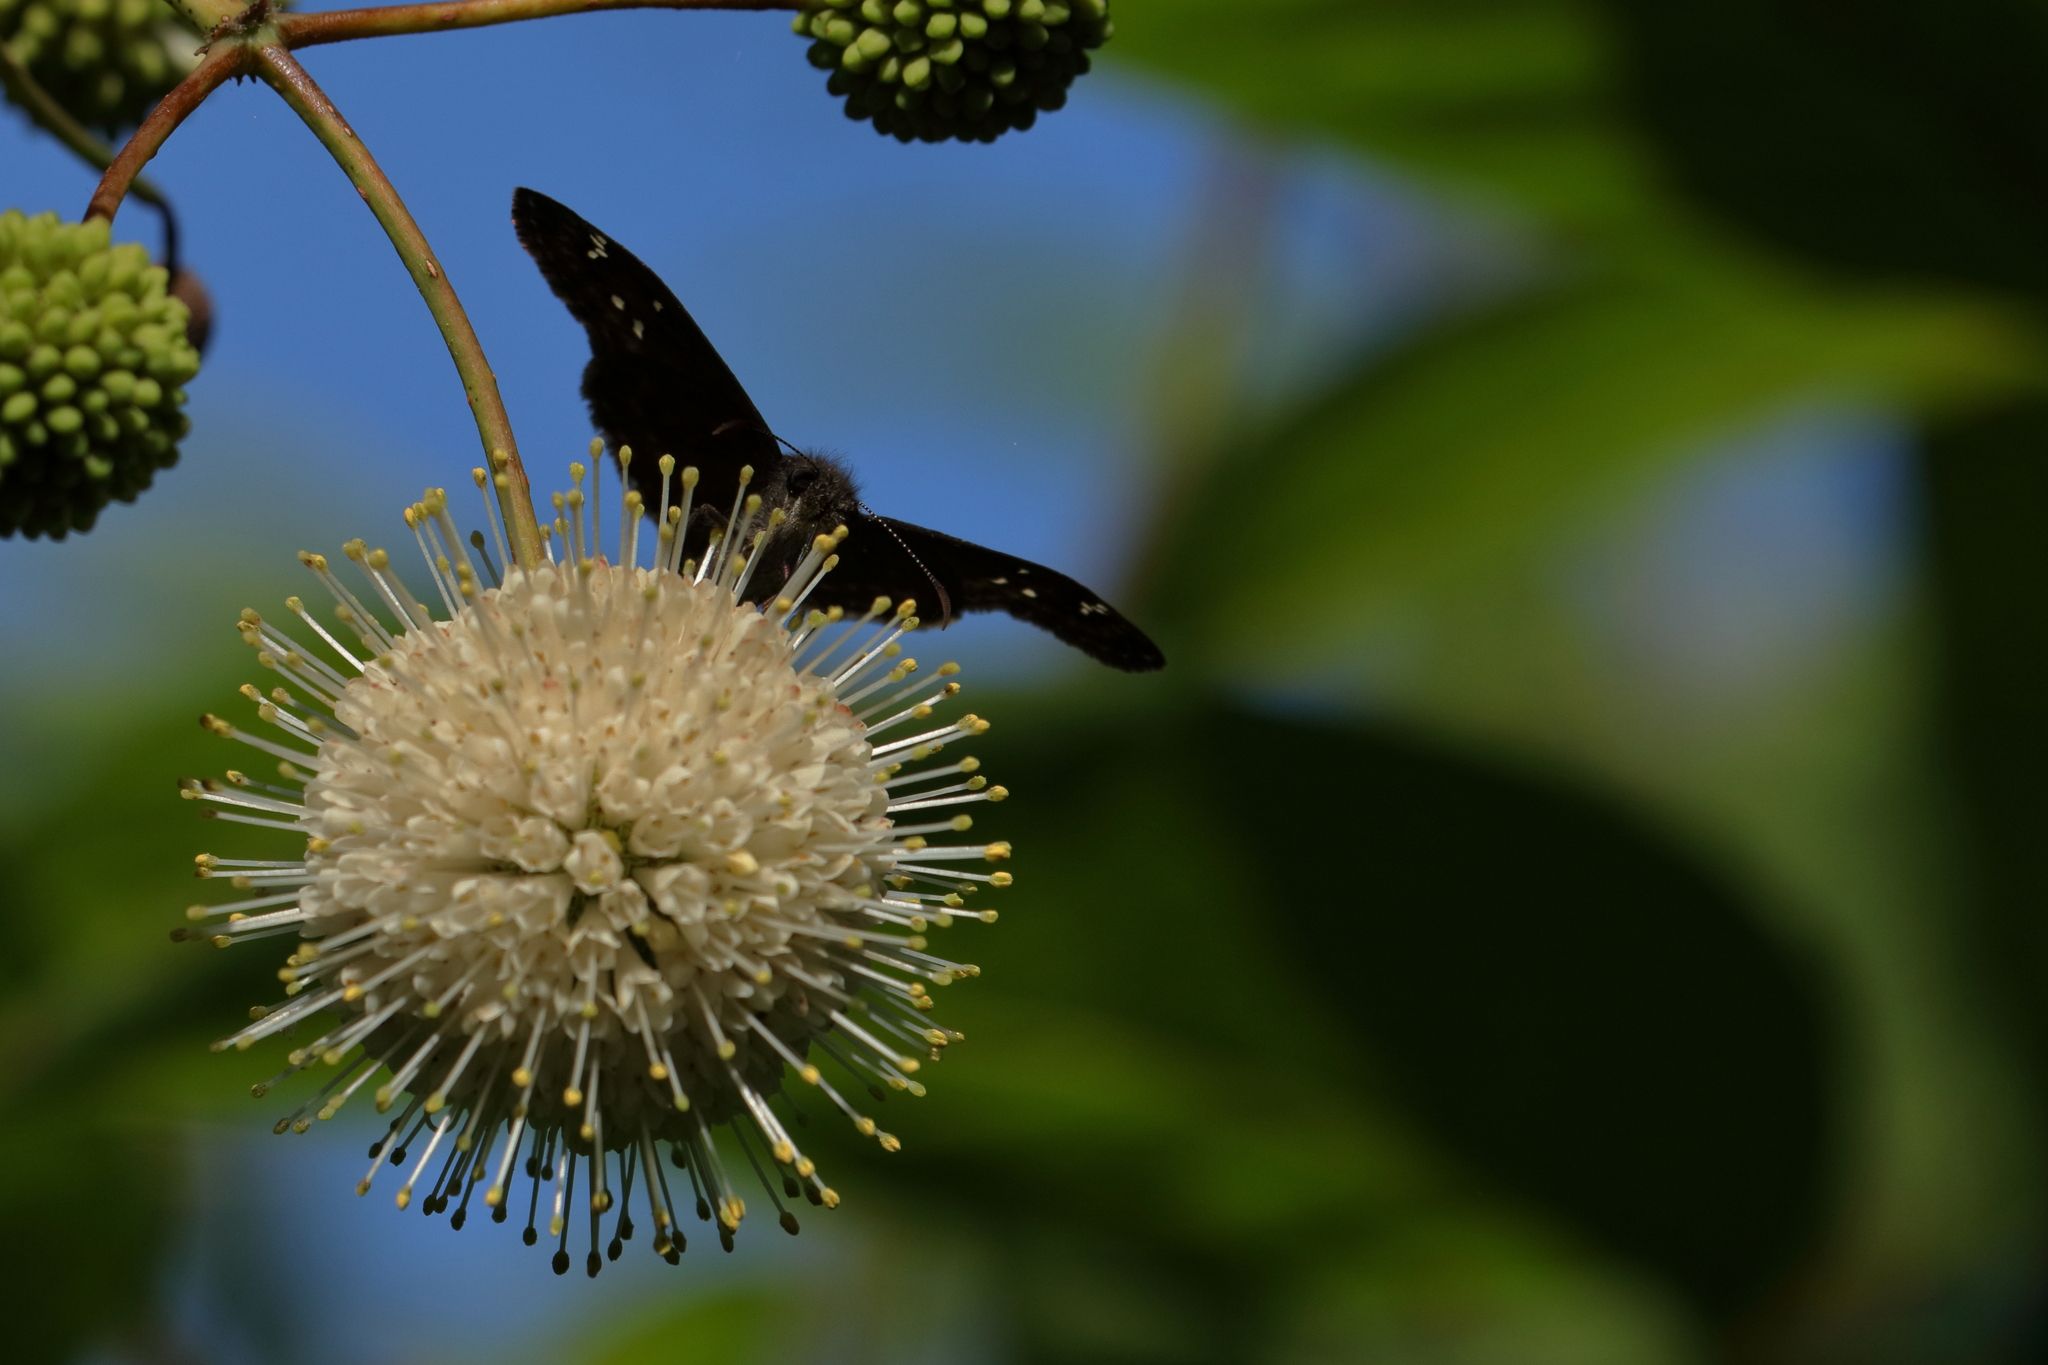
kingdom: Animalia
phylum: Arthropoda
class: Insecta
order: Lepidoptera
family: Hesperiidae
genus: Erynnis
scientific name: Erynnis horatius
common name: Horace's duskywing
